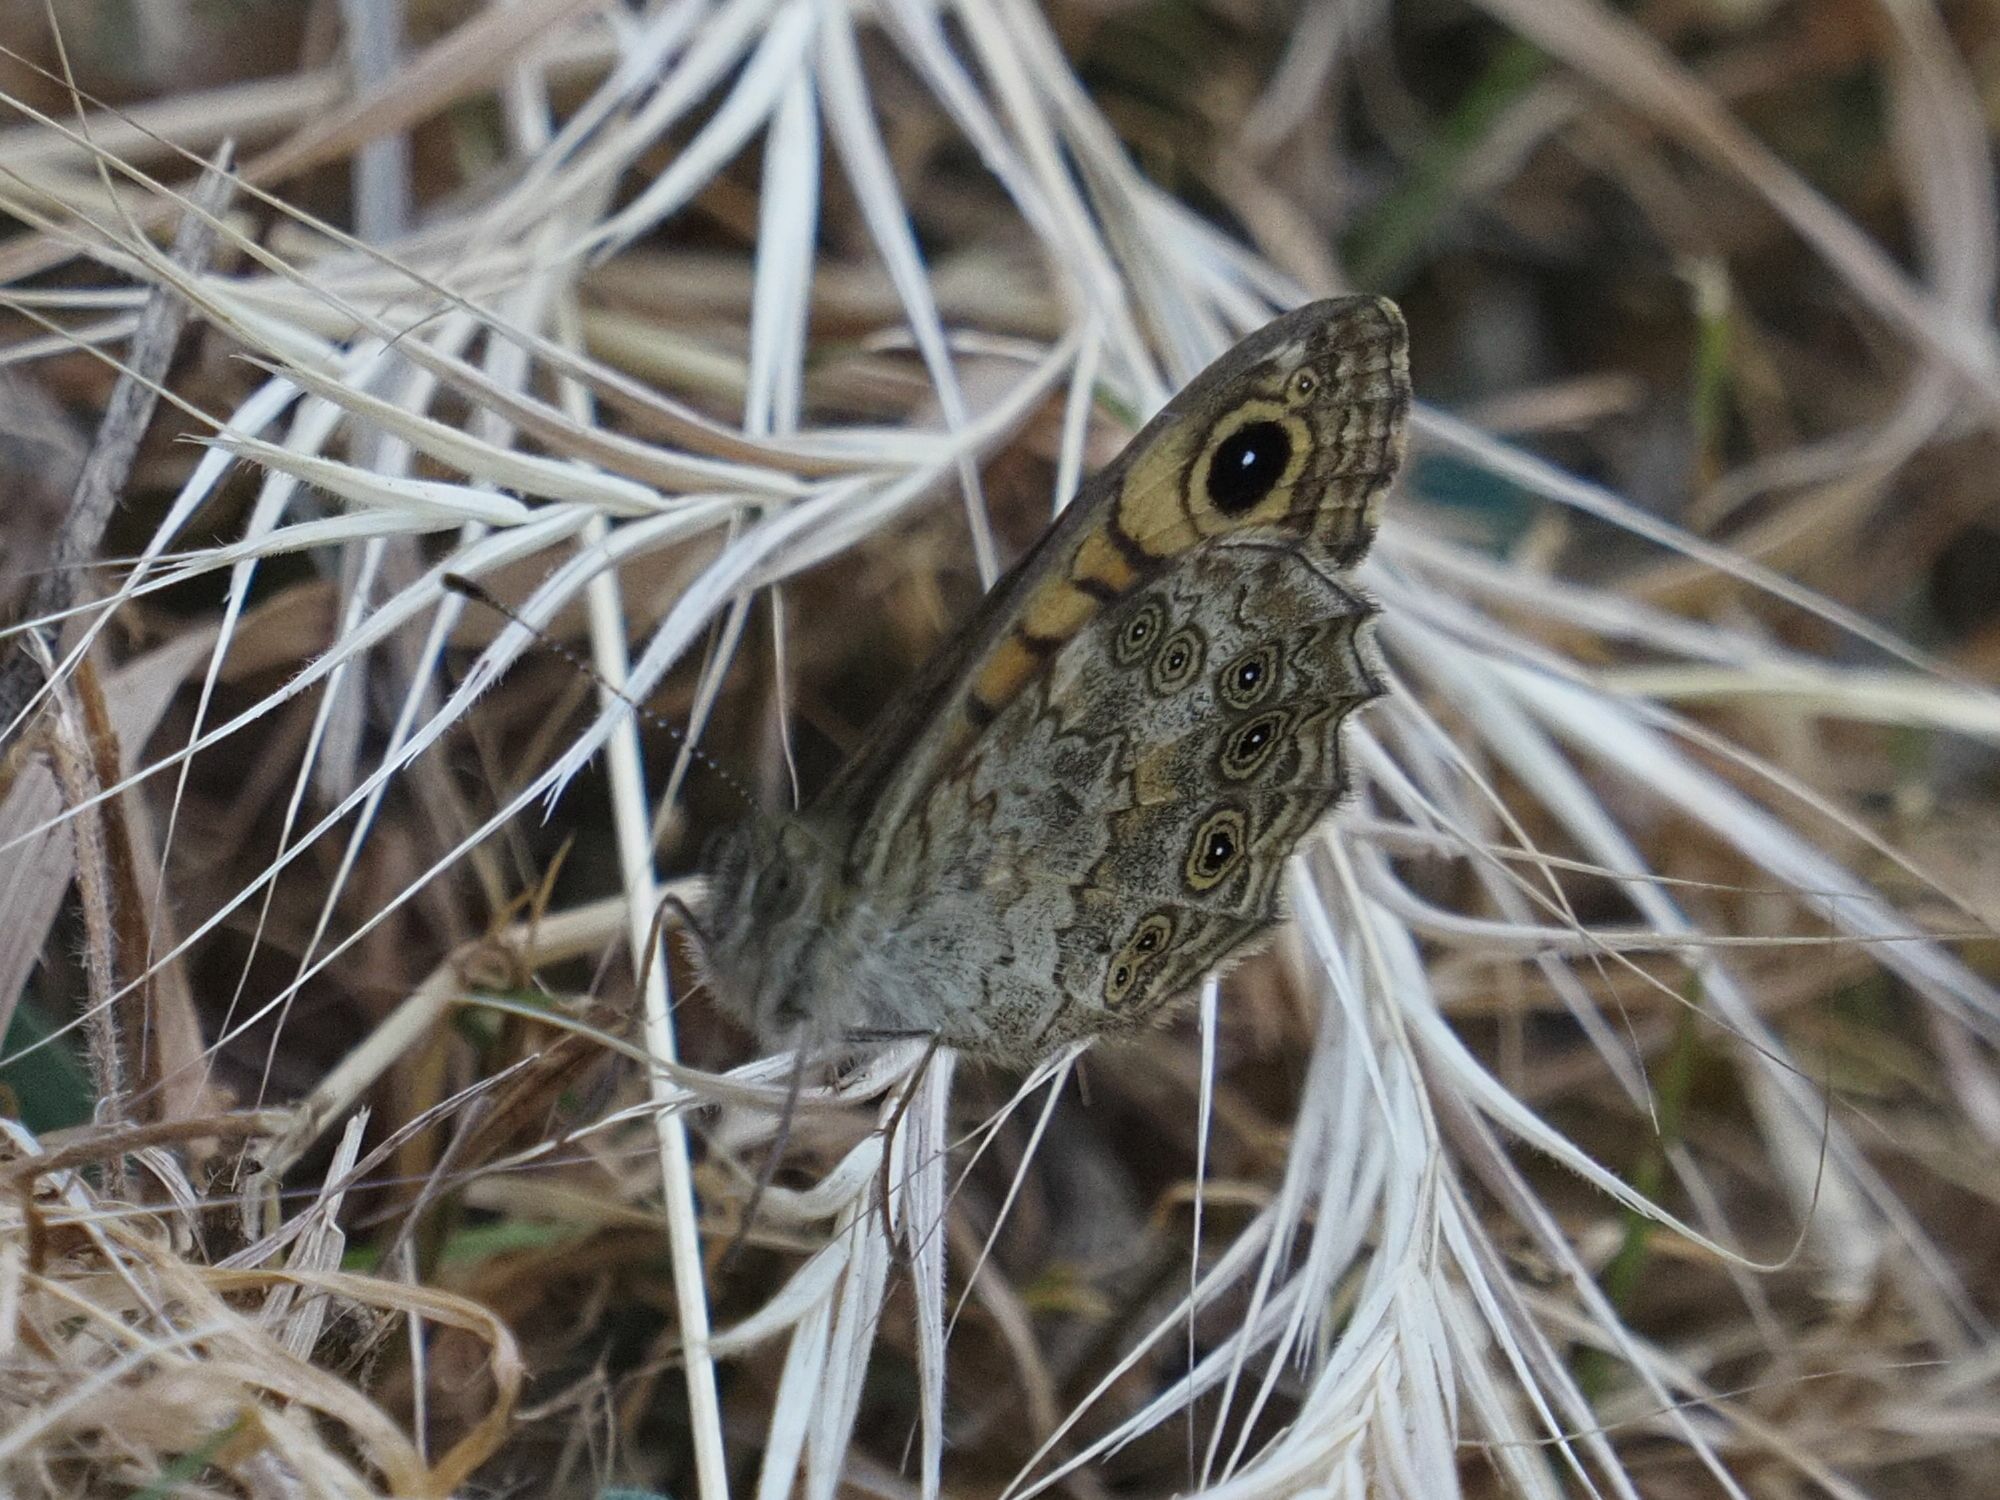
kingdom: Animalia
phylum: Arthropoda
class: Insecta
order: Lepidoptera
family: Nymphalidae
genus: Pararge
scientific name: Pararge Lasiommata megera
